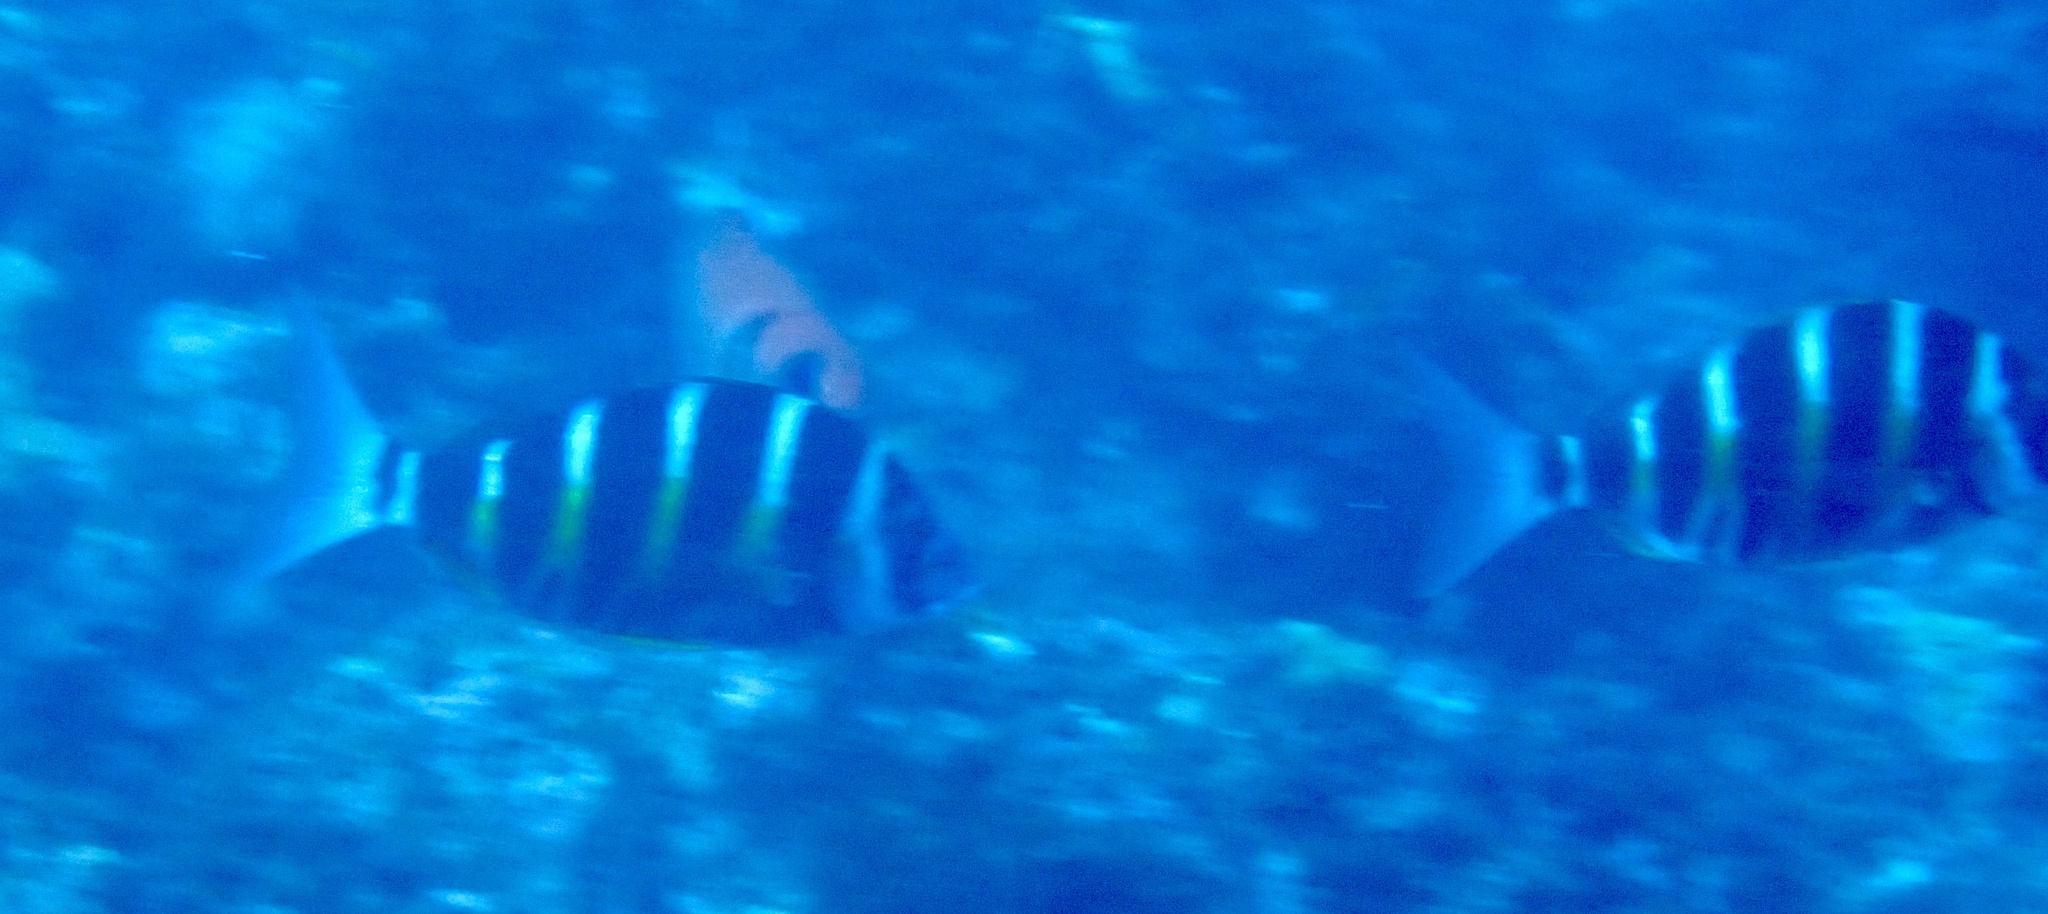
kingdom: Animalia
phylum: Chordata
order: Perciformes
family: Sparidae
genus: Diplodus
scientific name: Diplodus fasciatus
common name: Banded seabream
